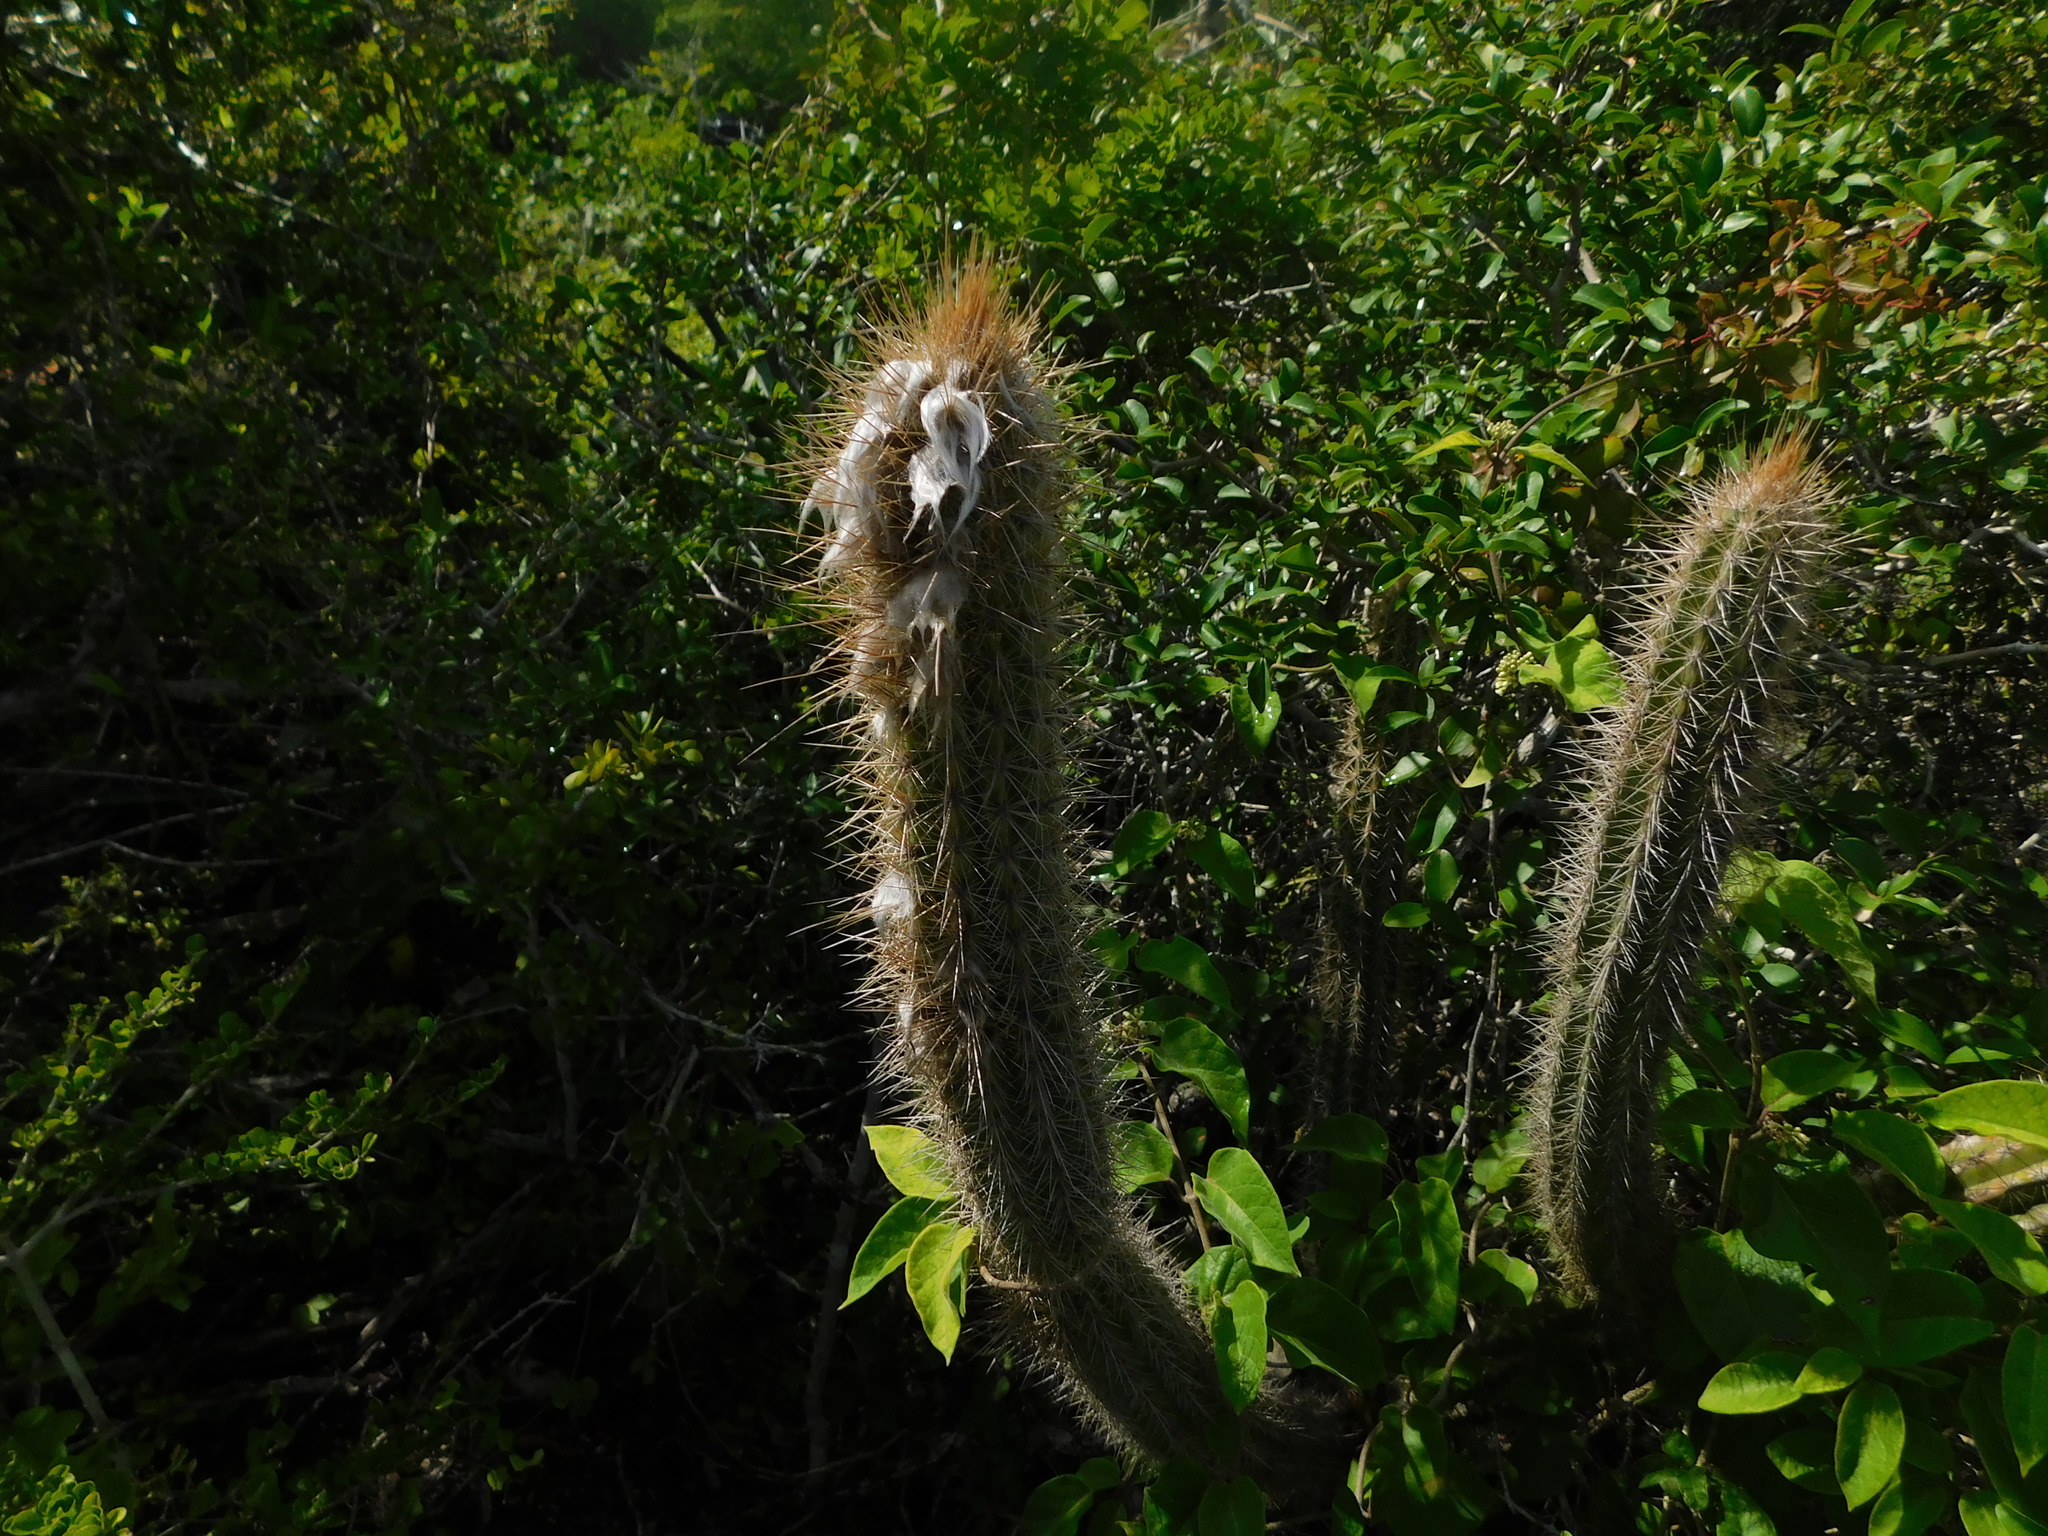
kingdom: Plantae
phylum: Tracheophyta
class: Magnoliopsida
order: Caryophyllales
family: Cactaceae
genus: Pilosocereus
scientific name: Pilosocereus gaumeri
